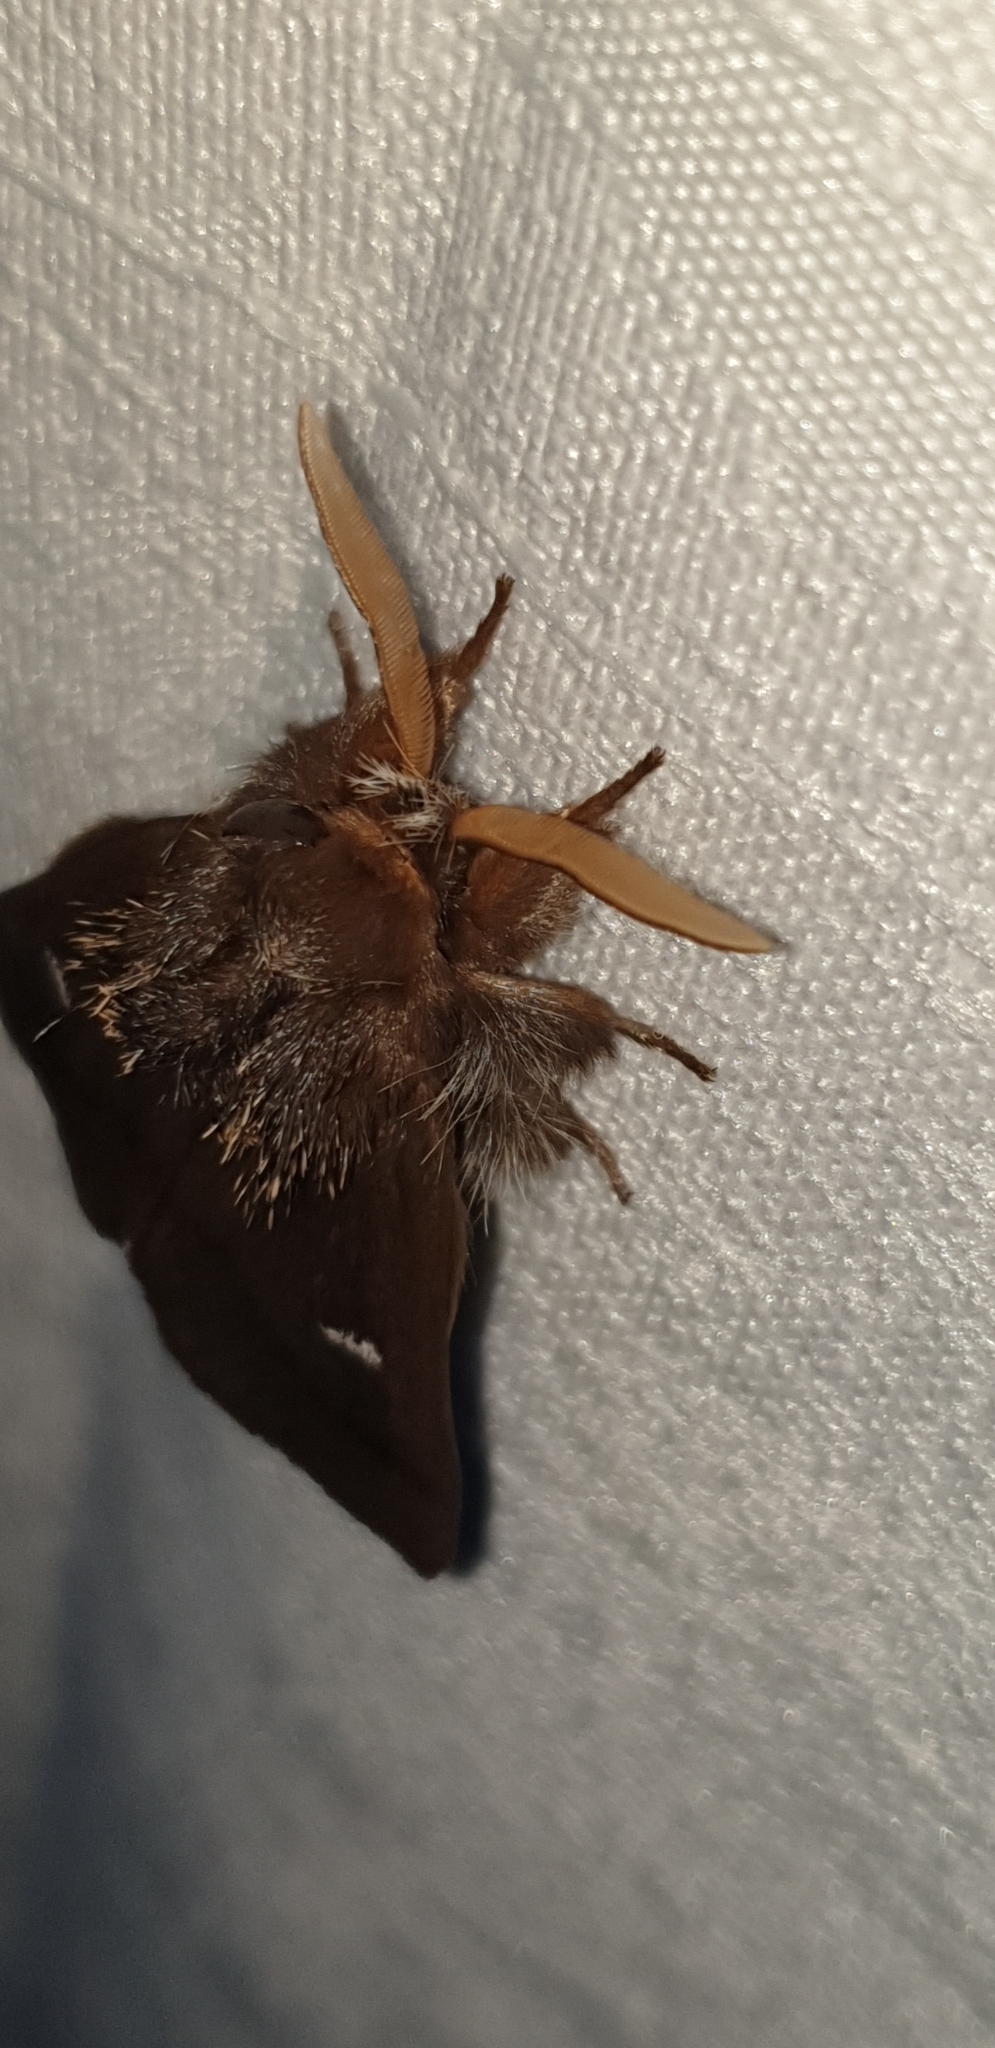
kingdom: Animalia
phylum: Arthropoda
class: Insecta
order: Lepidoptera
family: Notodontidae
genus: Ochrogaster
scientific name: Ochrogaster lunifer
